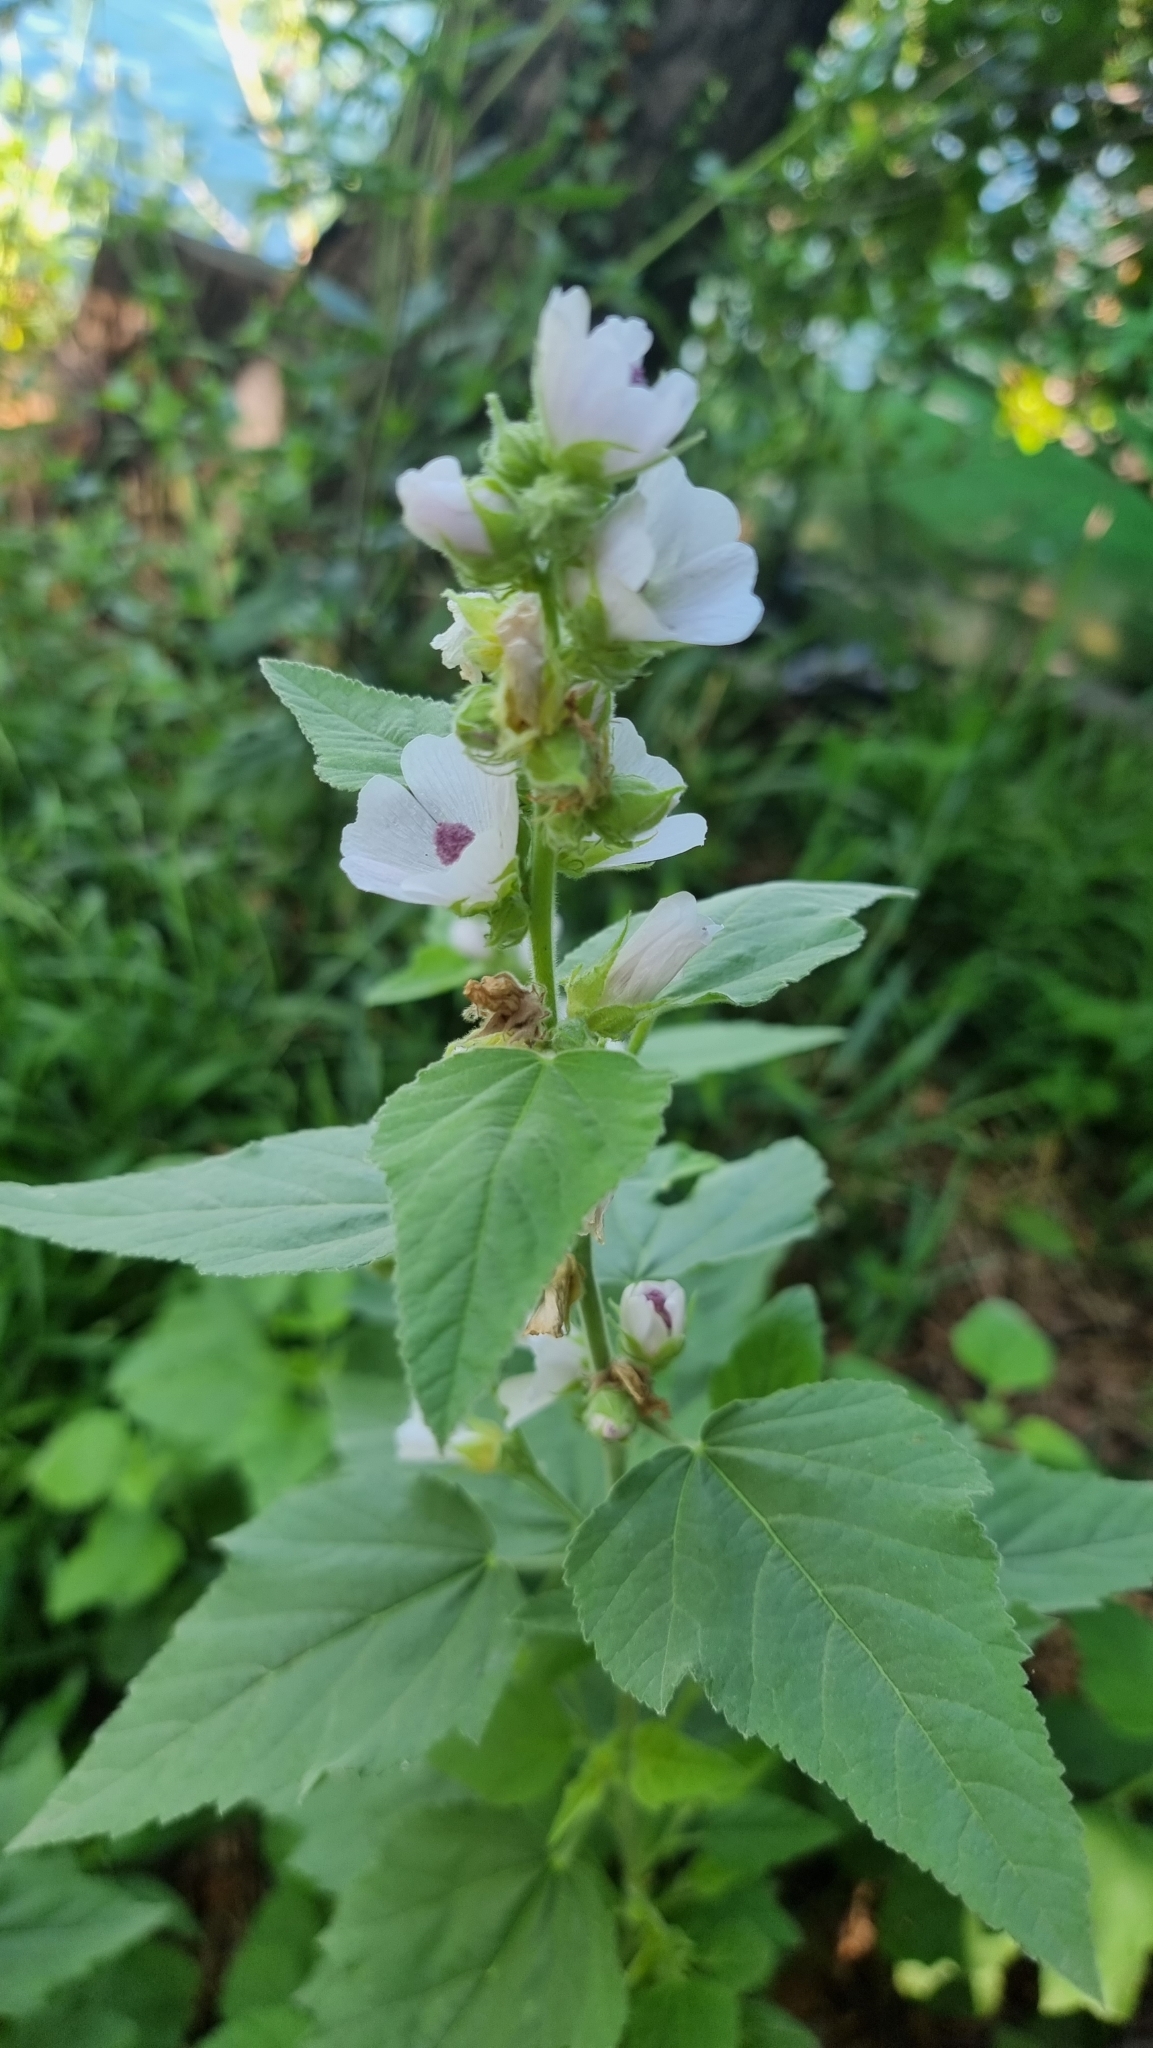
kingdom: Plantae
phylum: Tracheophyta
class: Magnoliopsida
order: Malvales
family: Malvaceae
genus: Althaea
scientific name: Althaea officinalis
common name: Marsh-mallow
